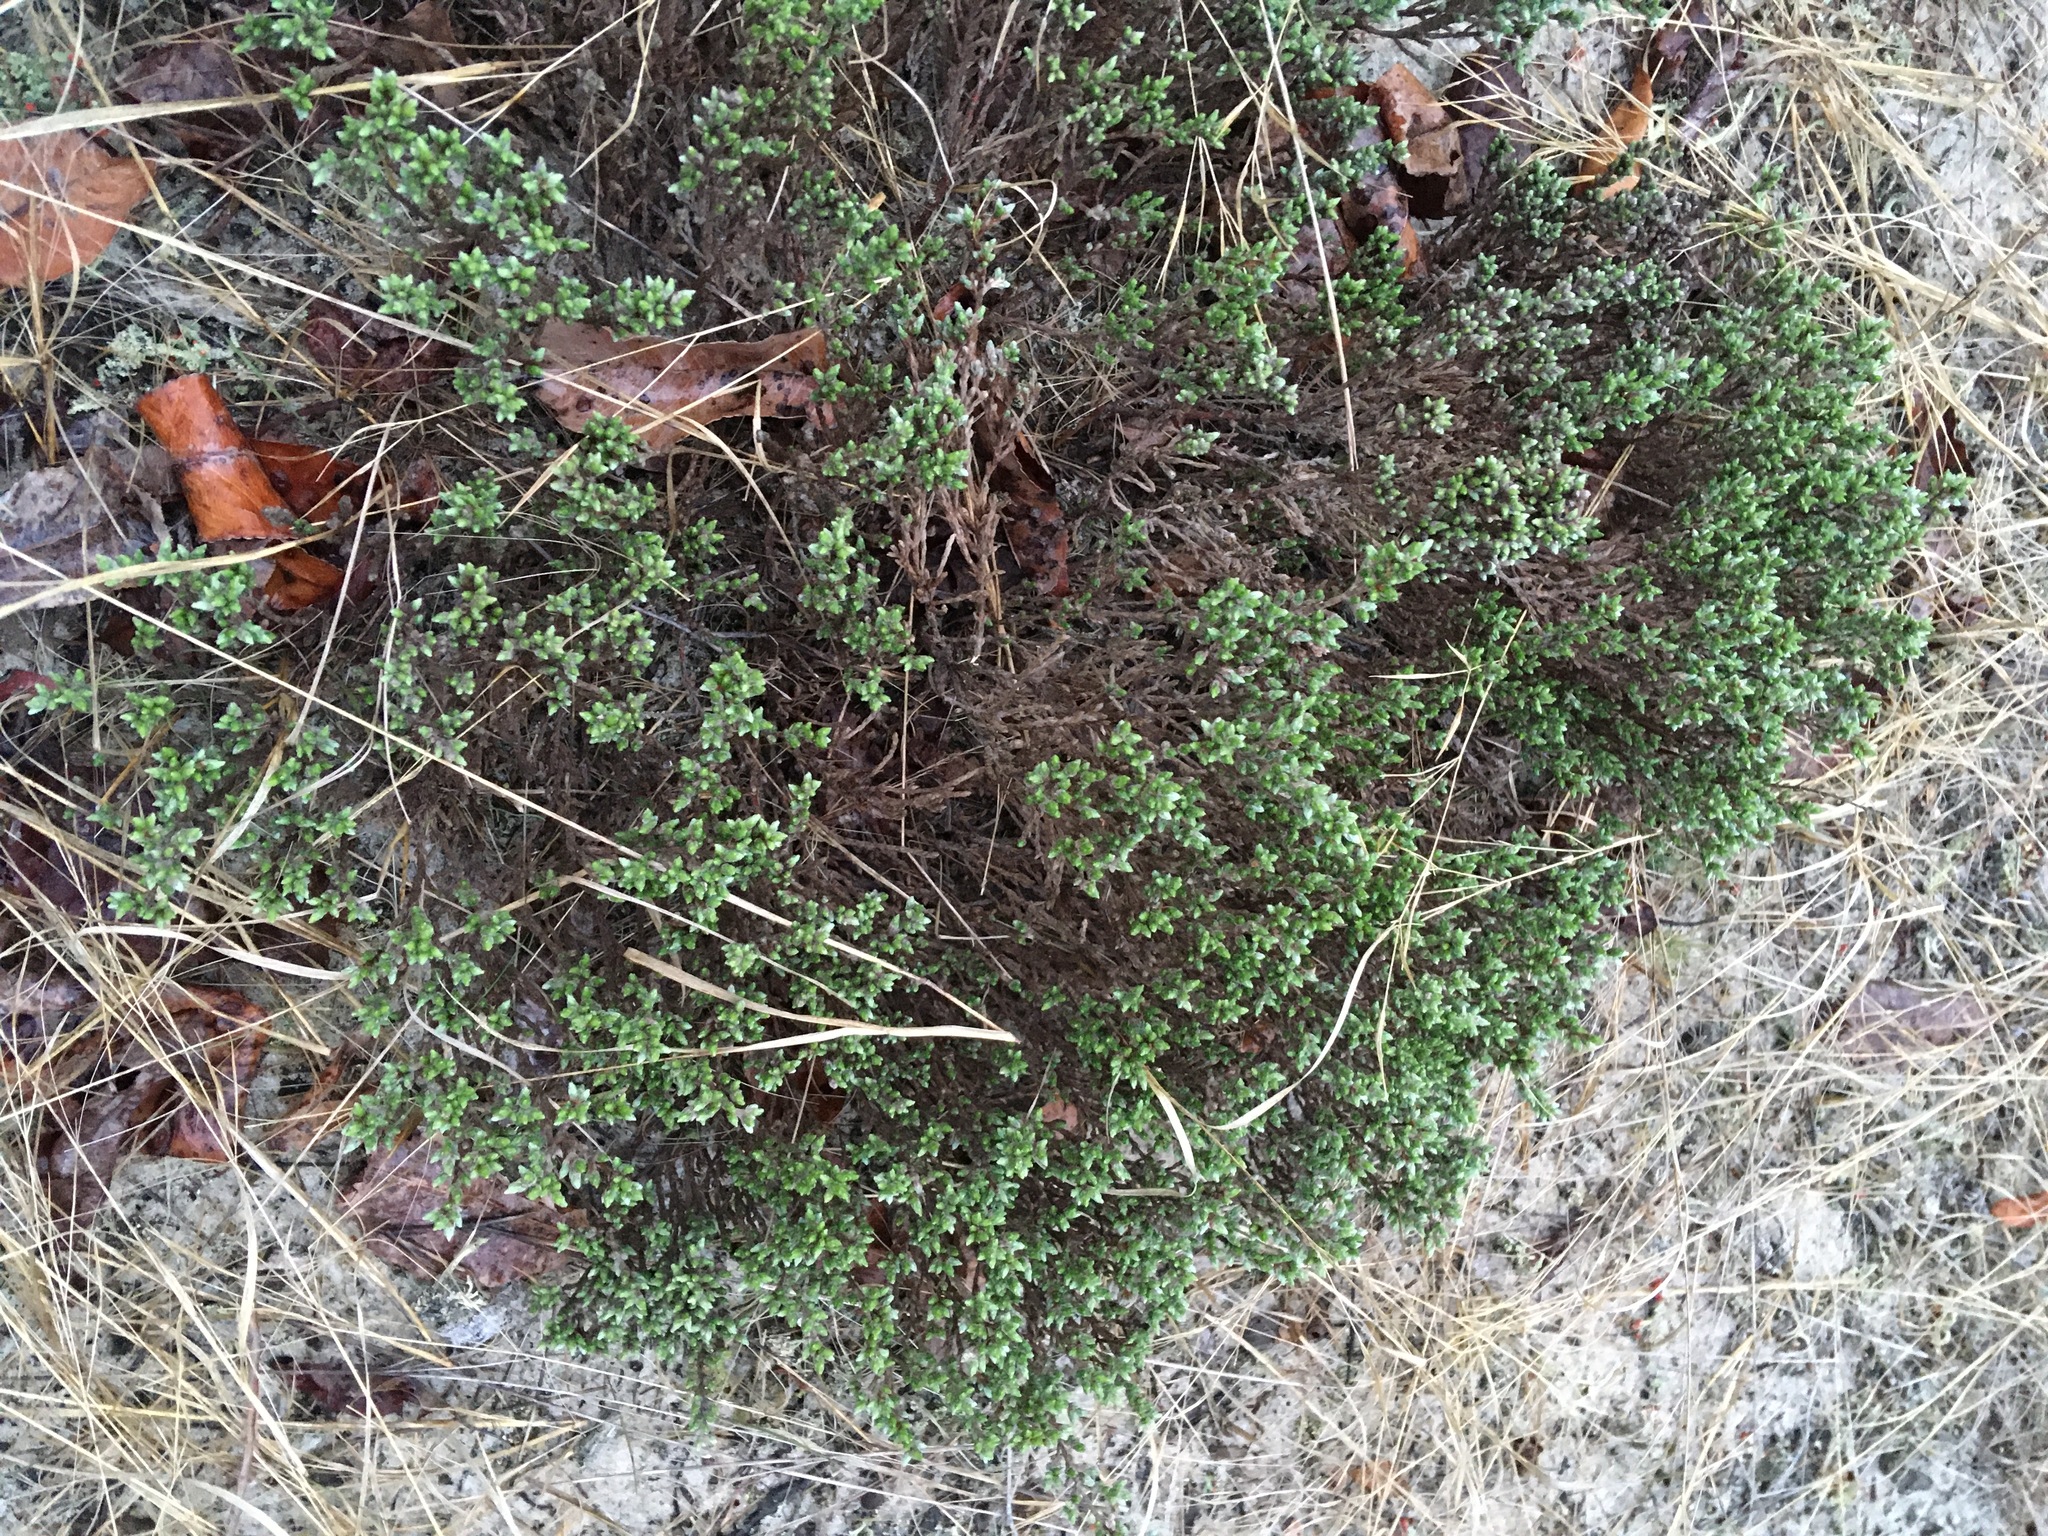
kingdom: Plantae
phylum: Tracheophyta
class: Magnoliopsida
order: Malvales
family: Cistaceae
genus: Hudsonia
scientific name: Hudsonia tomentosa
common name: Beach-heath
